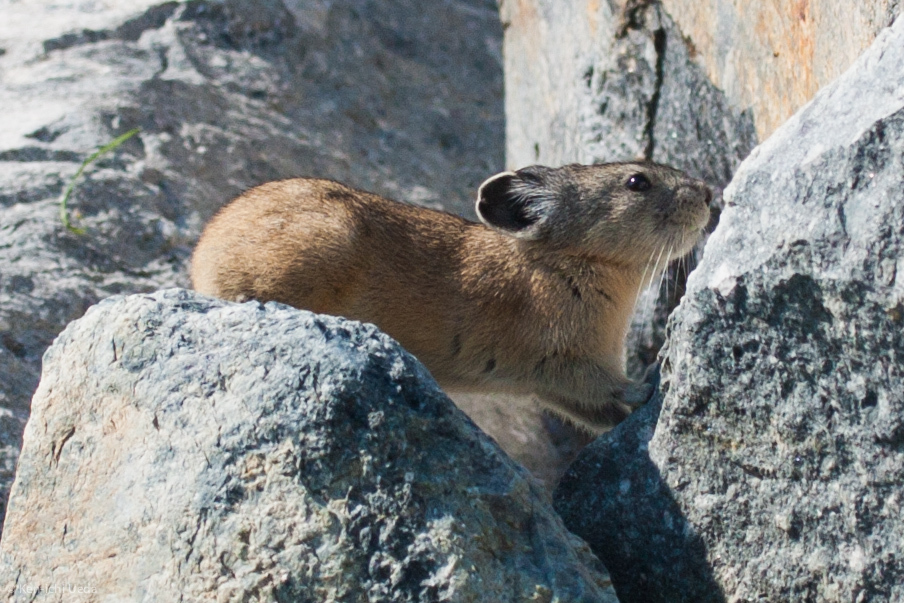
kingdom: Animalia
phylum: Chordata
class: Mammalia
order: Lagomorpha
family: Ochotonidae
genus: Ochotona
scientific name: Ochotona princeps
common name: American pika
